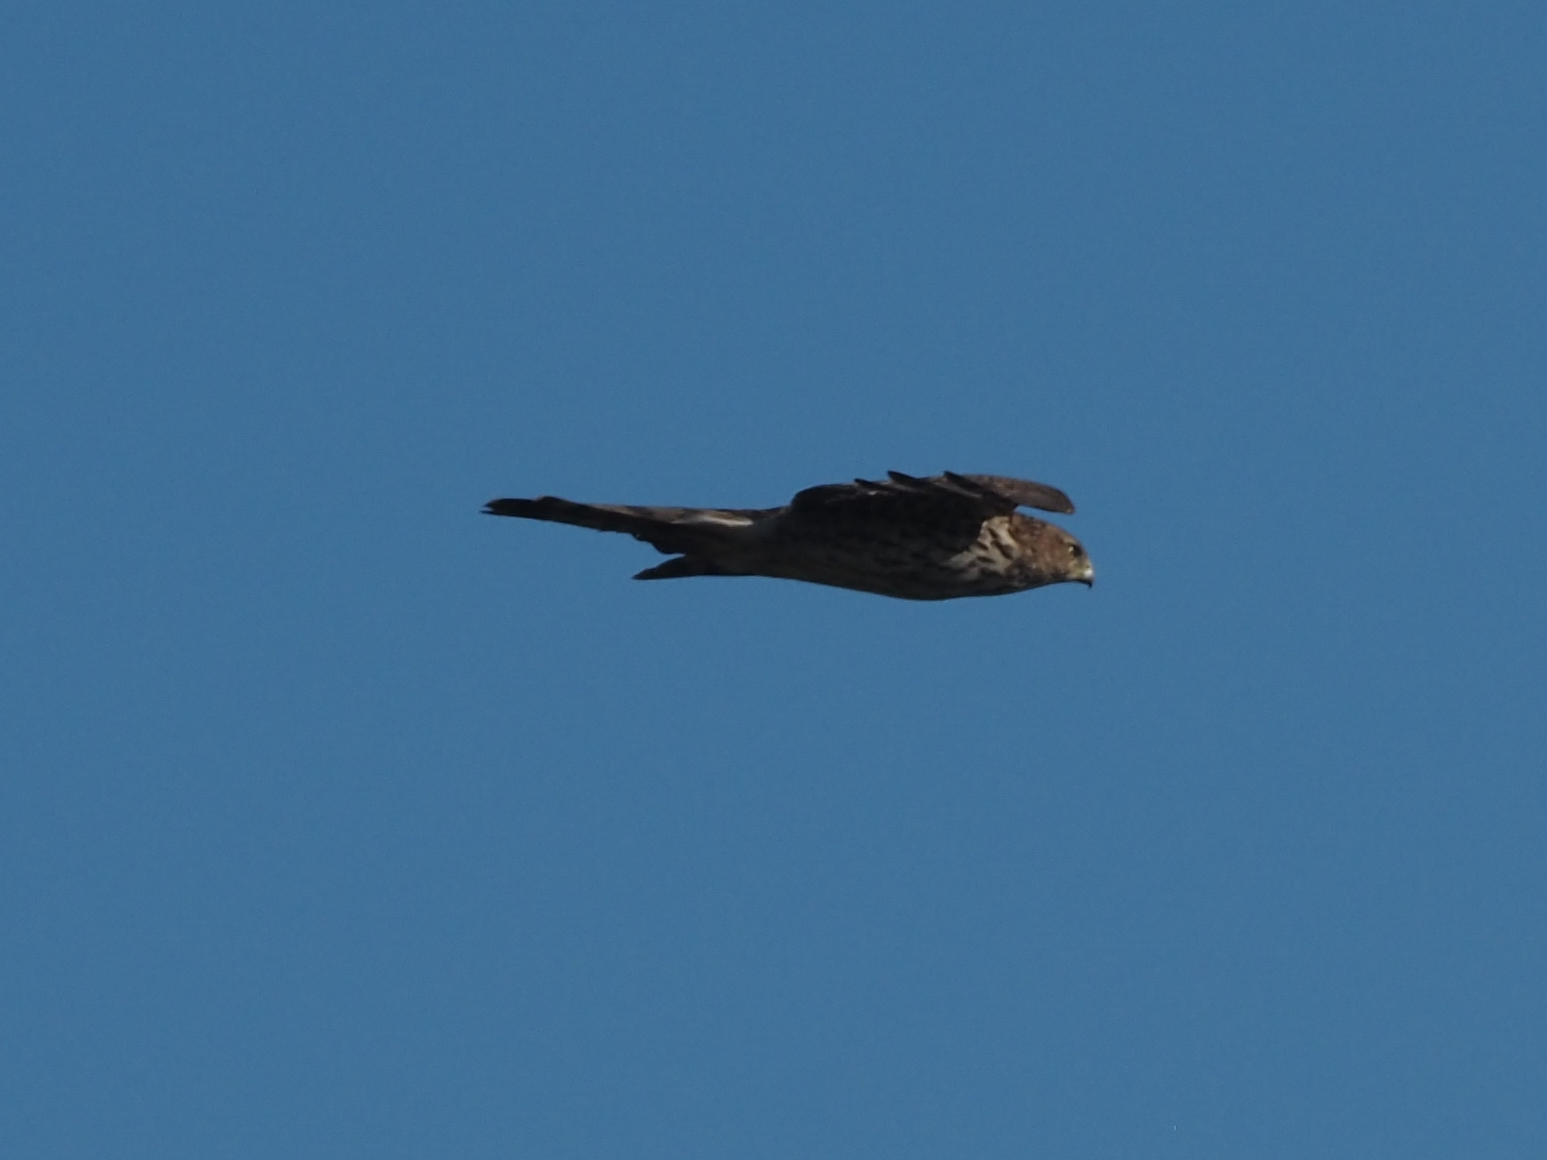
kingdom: Animalia
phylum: Chordata
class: Aves
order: Accipitriformes
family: Accipitridae
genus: Accipiter
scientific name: Accipiter cooperii
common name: Cooper's hawk
